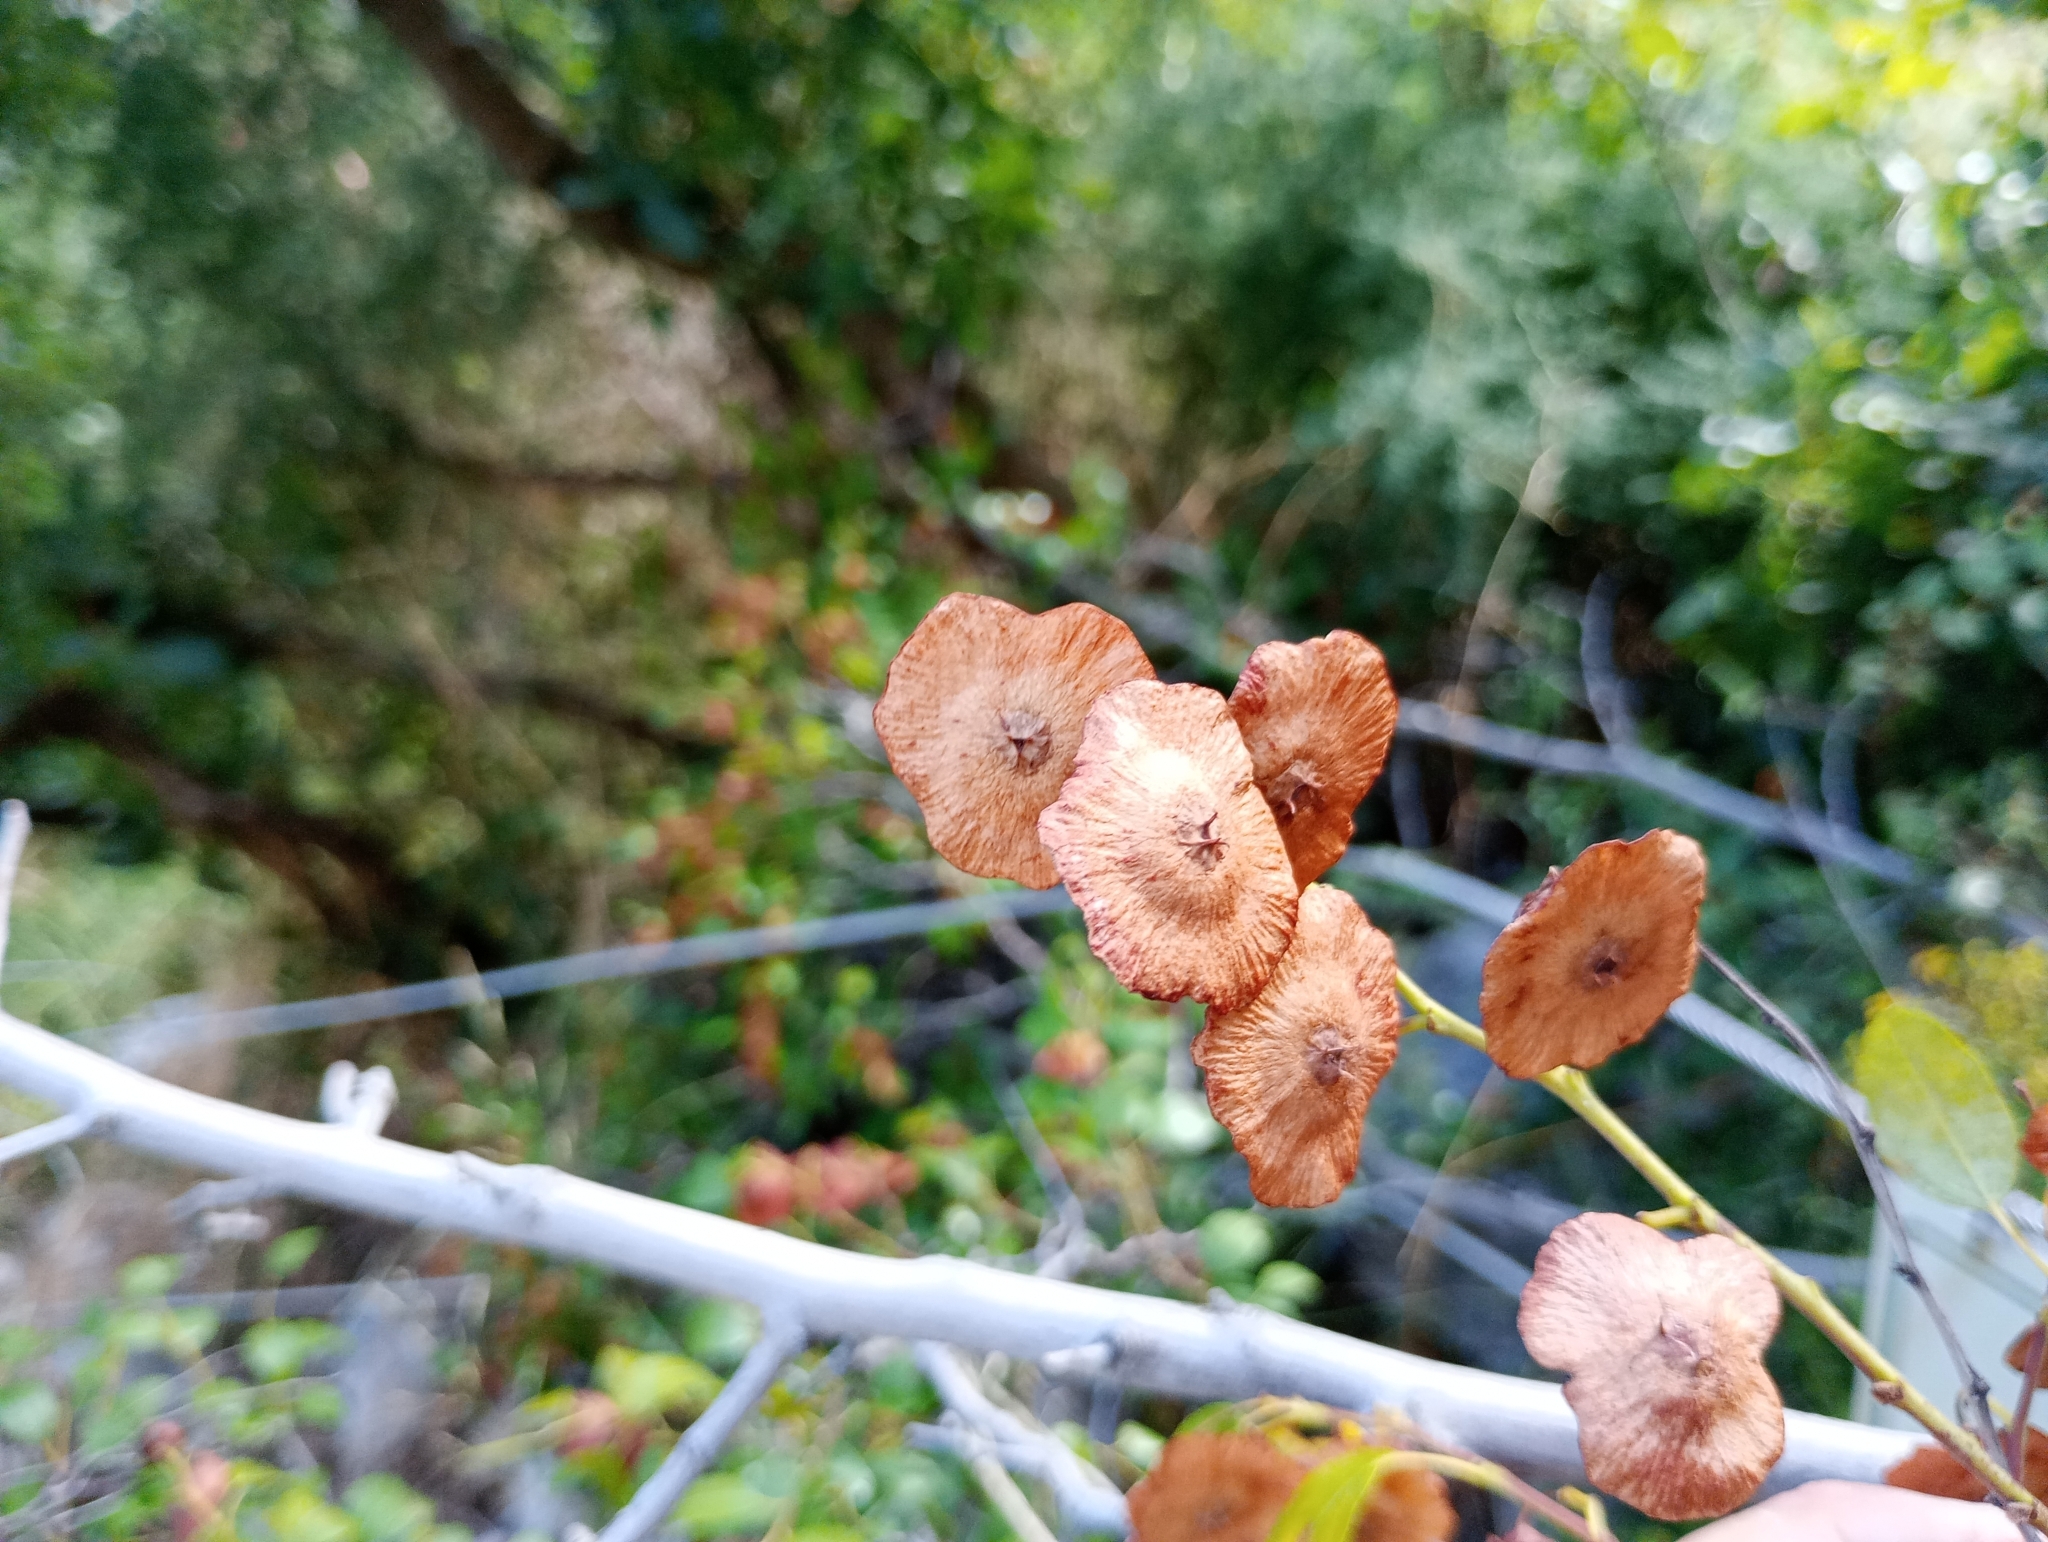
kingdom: Plantae
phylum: Tracheophyta
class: Magnoliopsida
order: Rosales
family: Rhamnaceae
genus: Paliurus
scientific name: Paliurus spina-christi
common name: Jeruselem thorn
